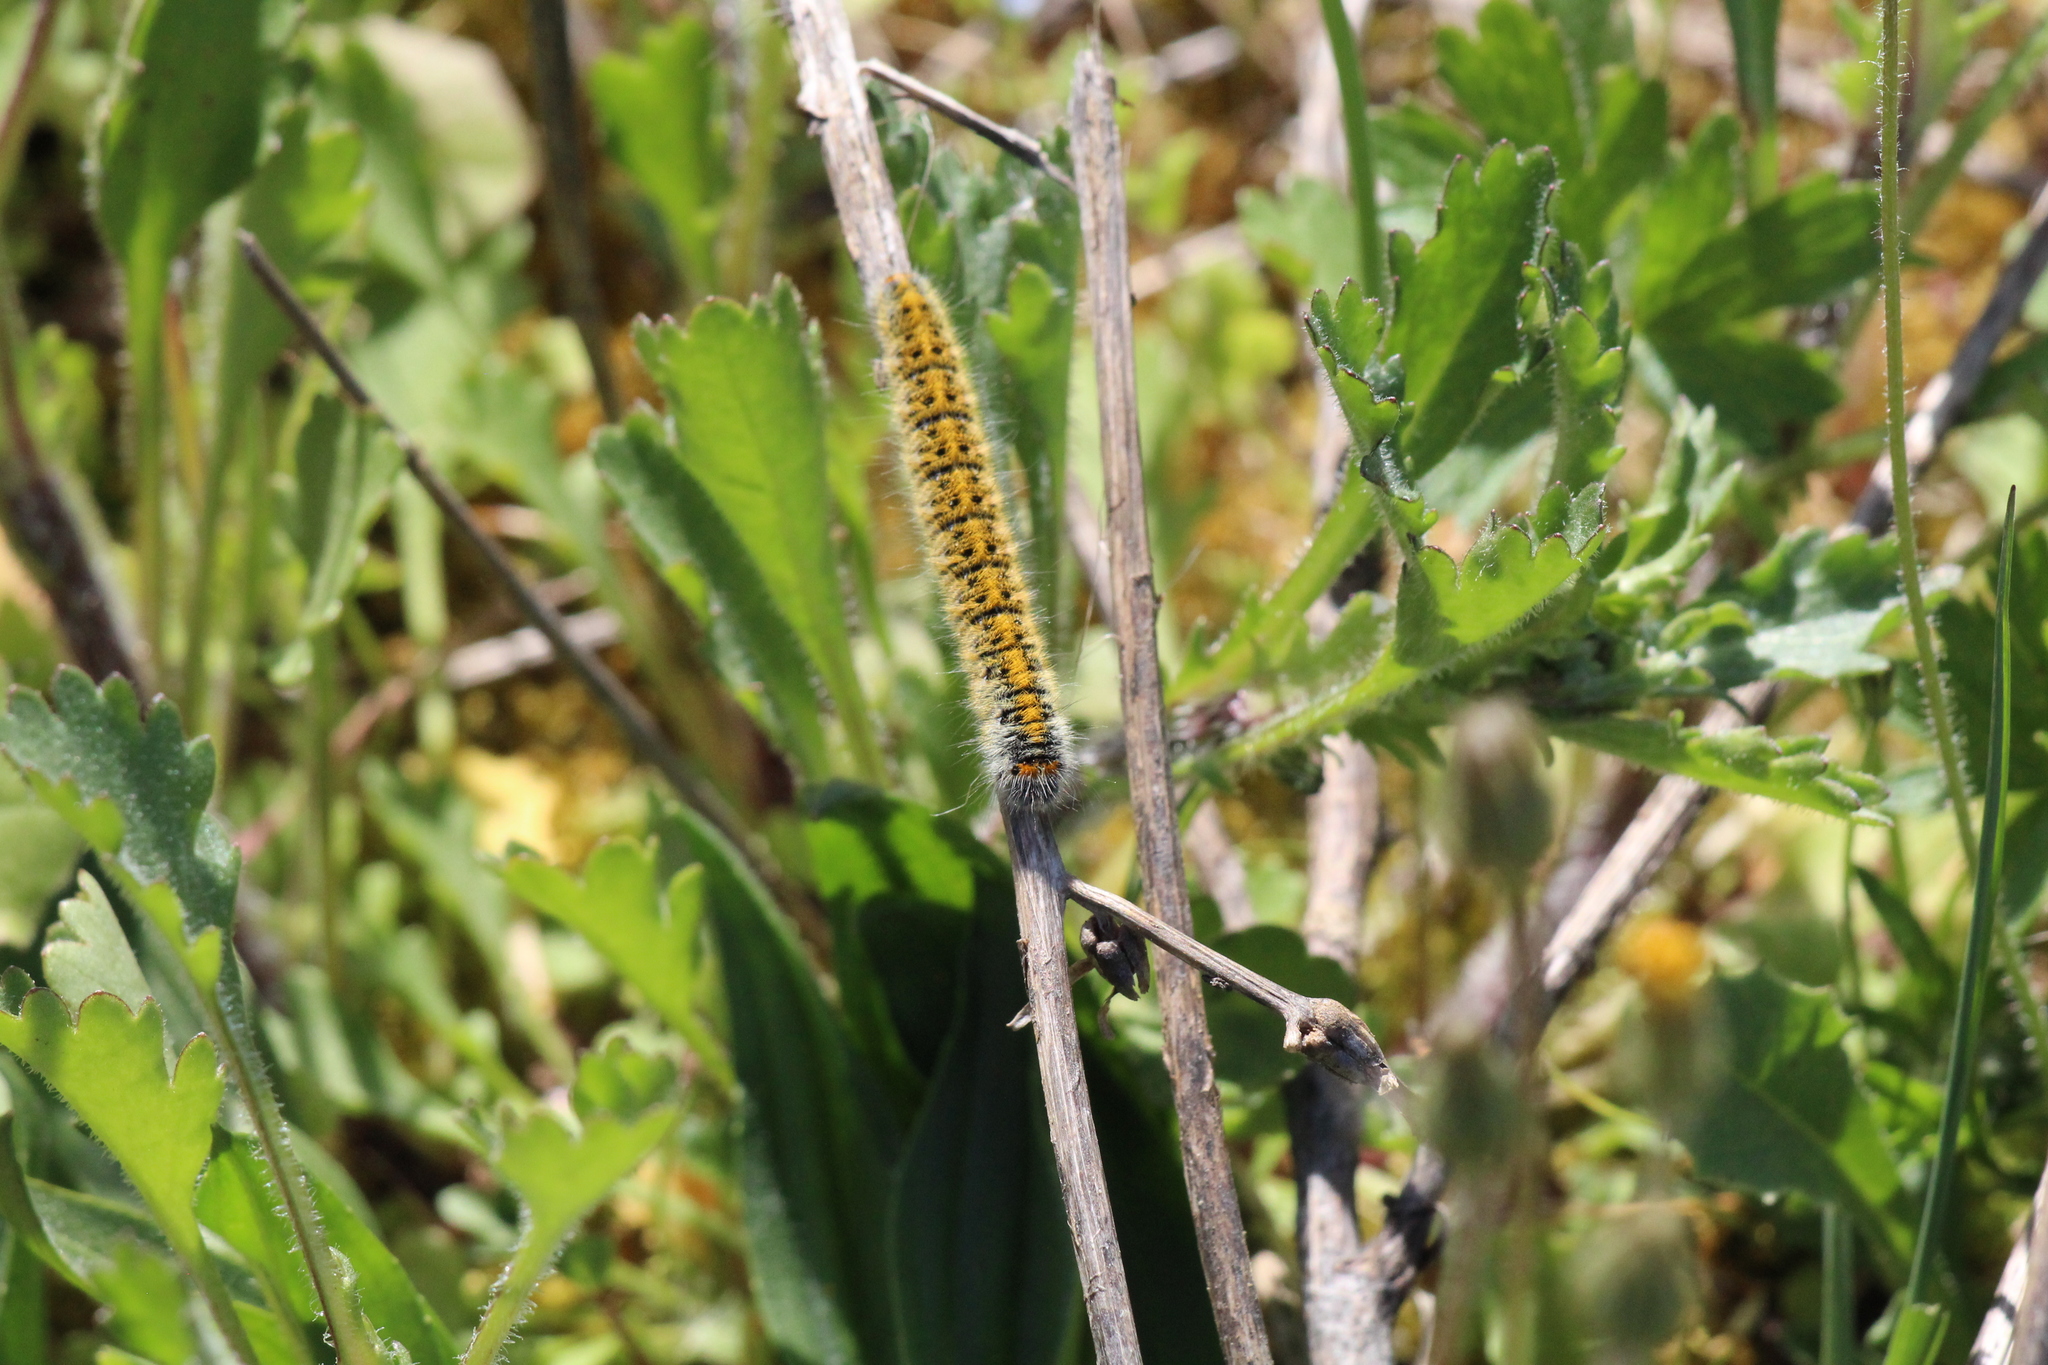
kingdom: Animalia
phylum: Arthropoda
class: Insecta
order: Lepidoptera
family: Lasiocampidae
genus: Lasiocampa
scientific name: Lasiocampa trifolii
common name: Grass eggar
